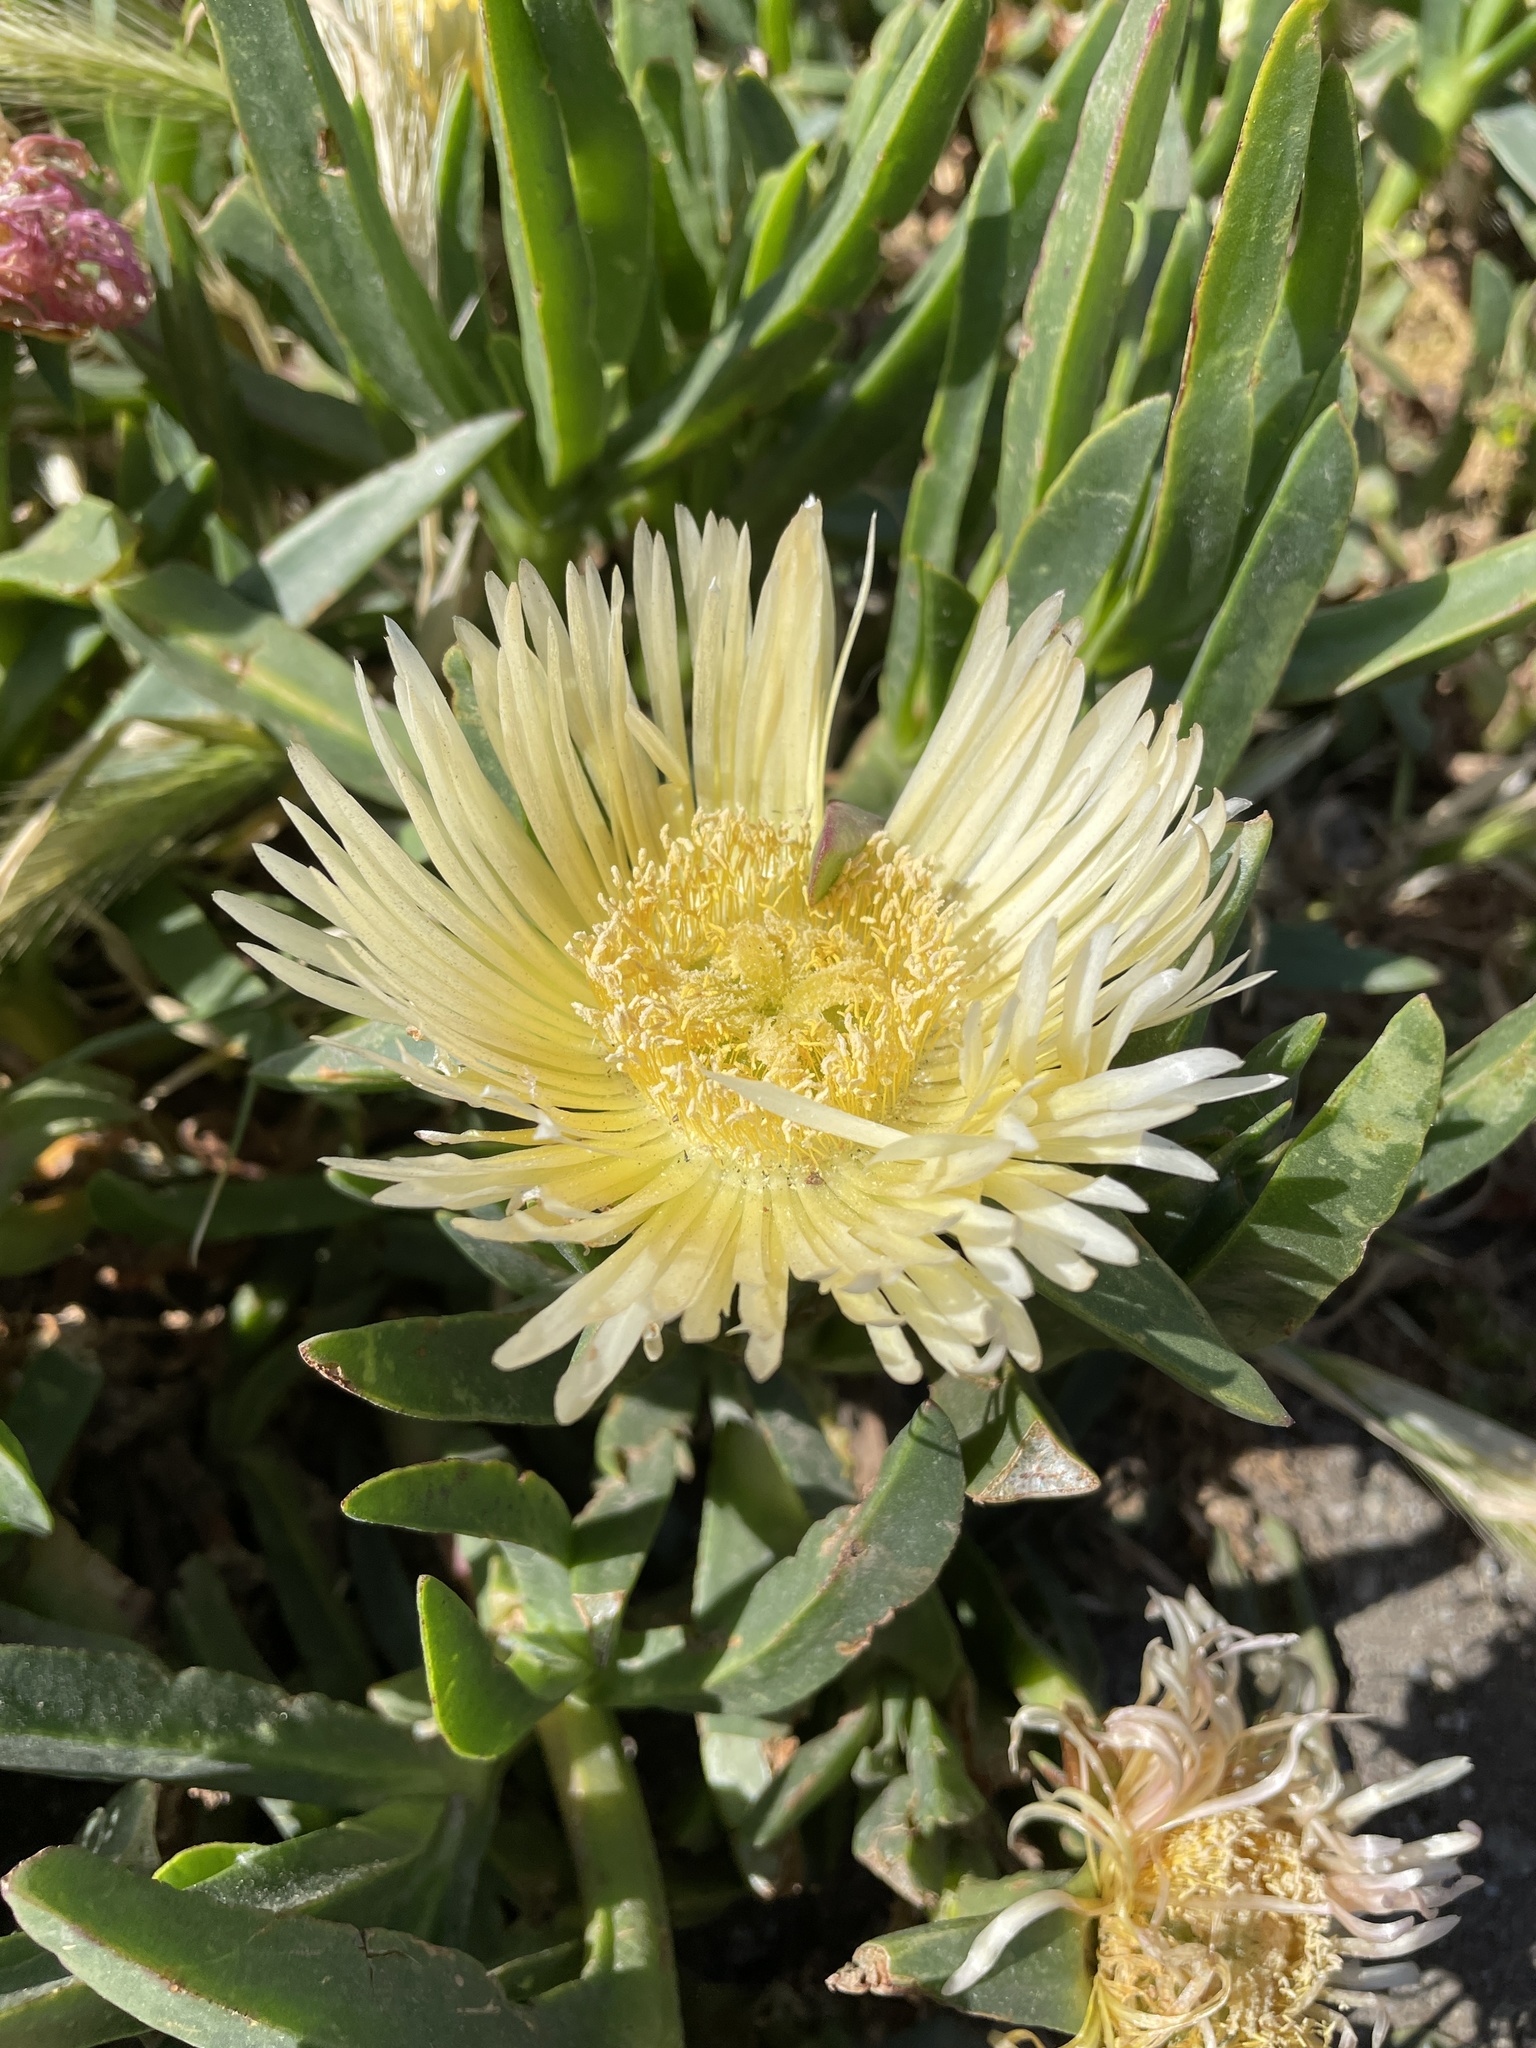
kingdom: Plantae
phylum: Tracheophyta
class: Magnoliopsida
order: Caryophyllales
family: Aizoaceae
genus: Carpobrotus
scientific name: Carpobrotus edulis
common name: Hottentot-fig
